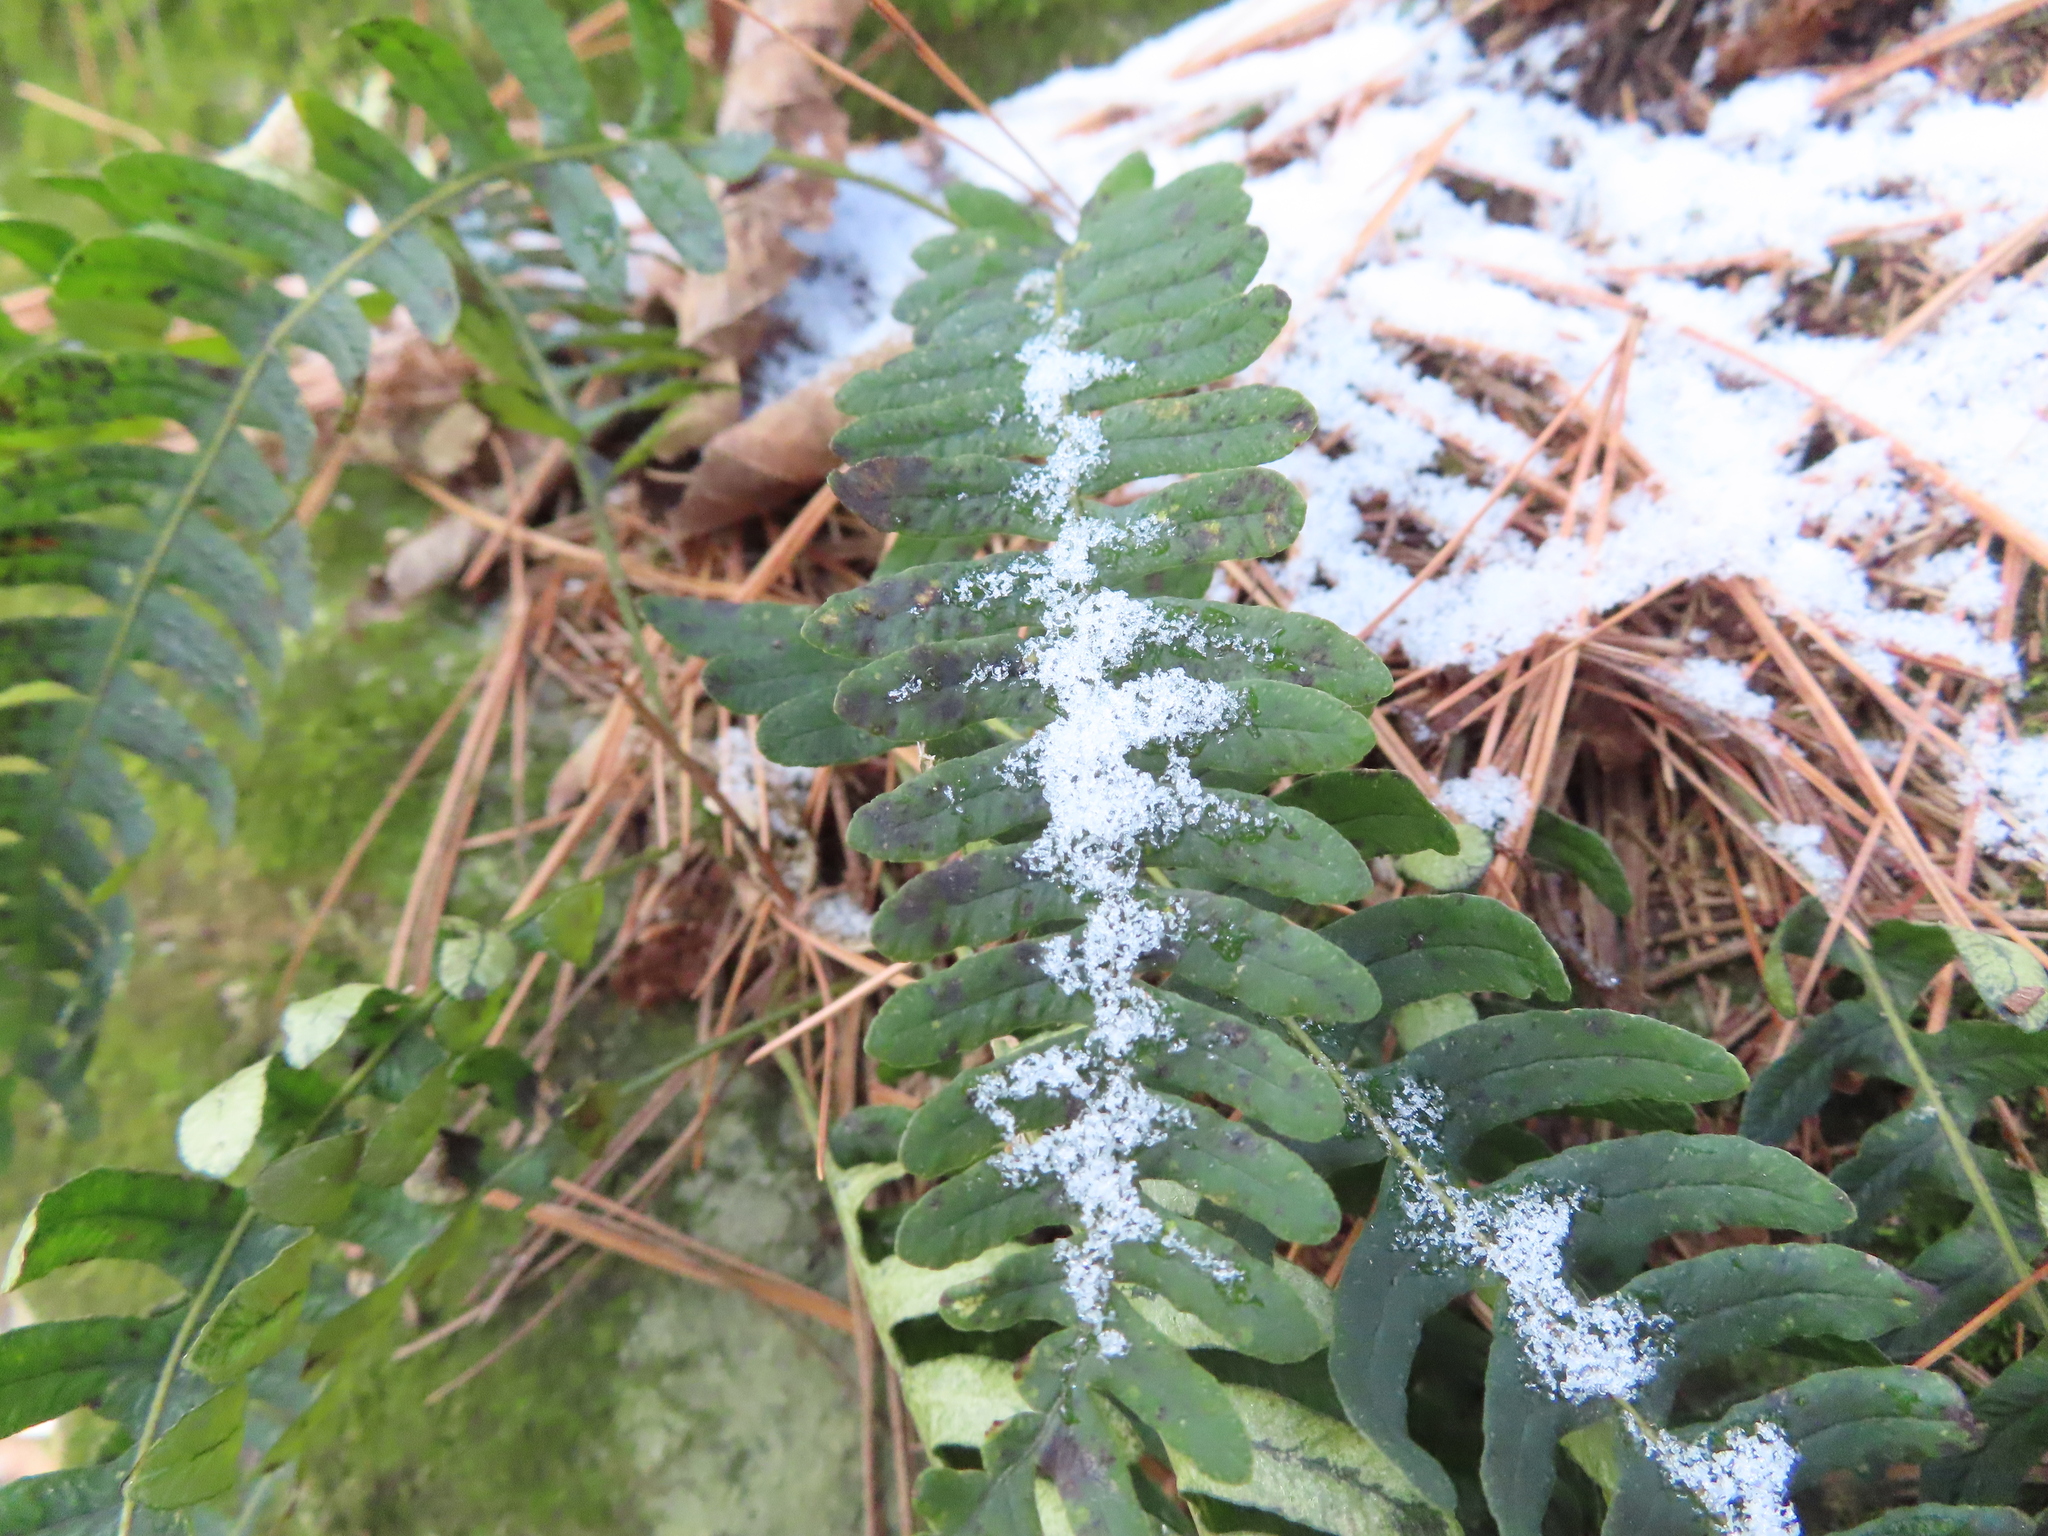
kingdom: Plantae
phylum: Tracheophyta
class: Polypodiopsida
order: Polypodiales
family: Polypodiaceae
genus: Polypodium
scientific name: Polypodium virginianum
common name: American wall fern
